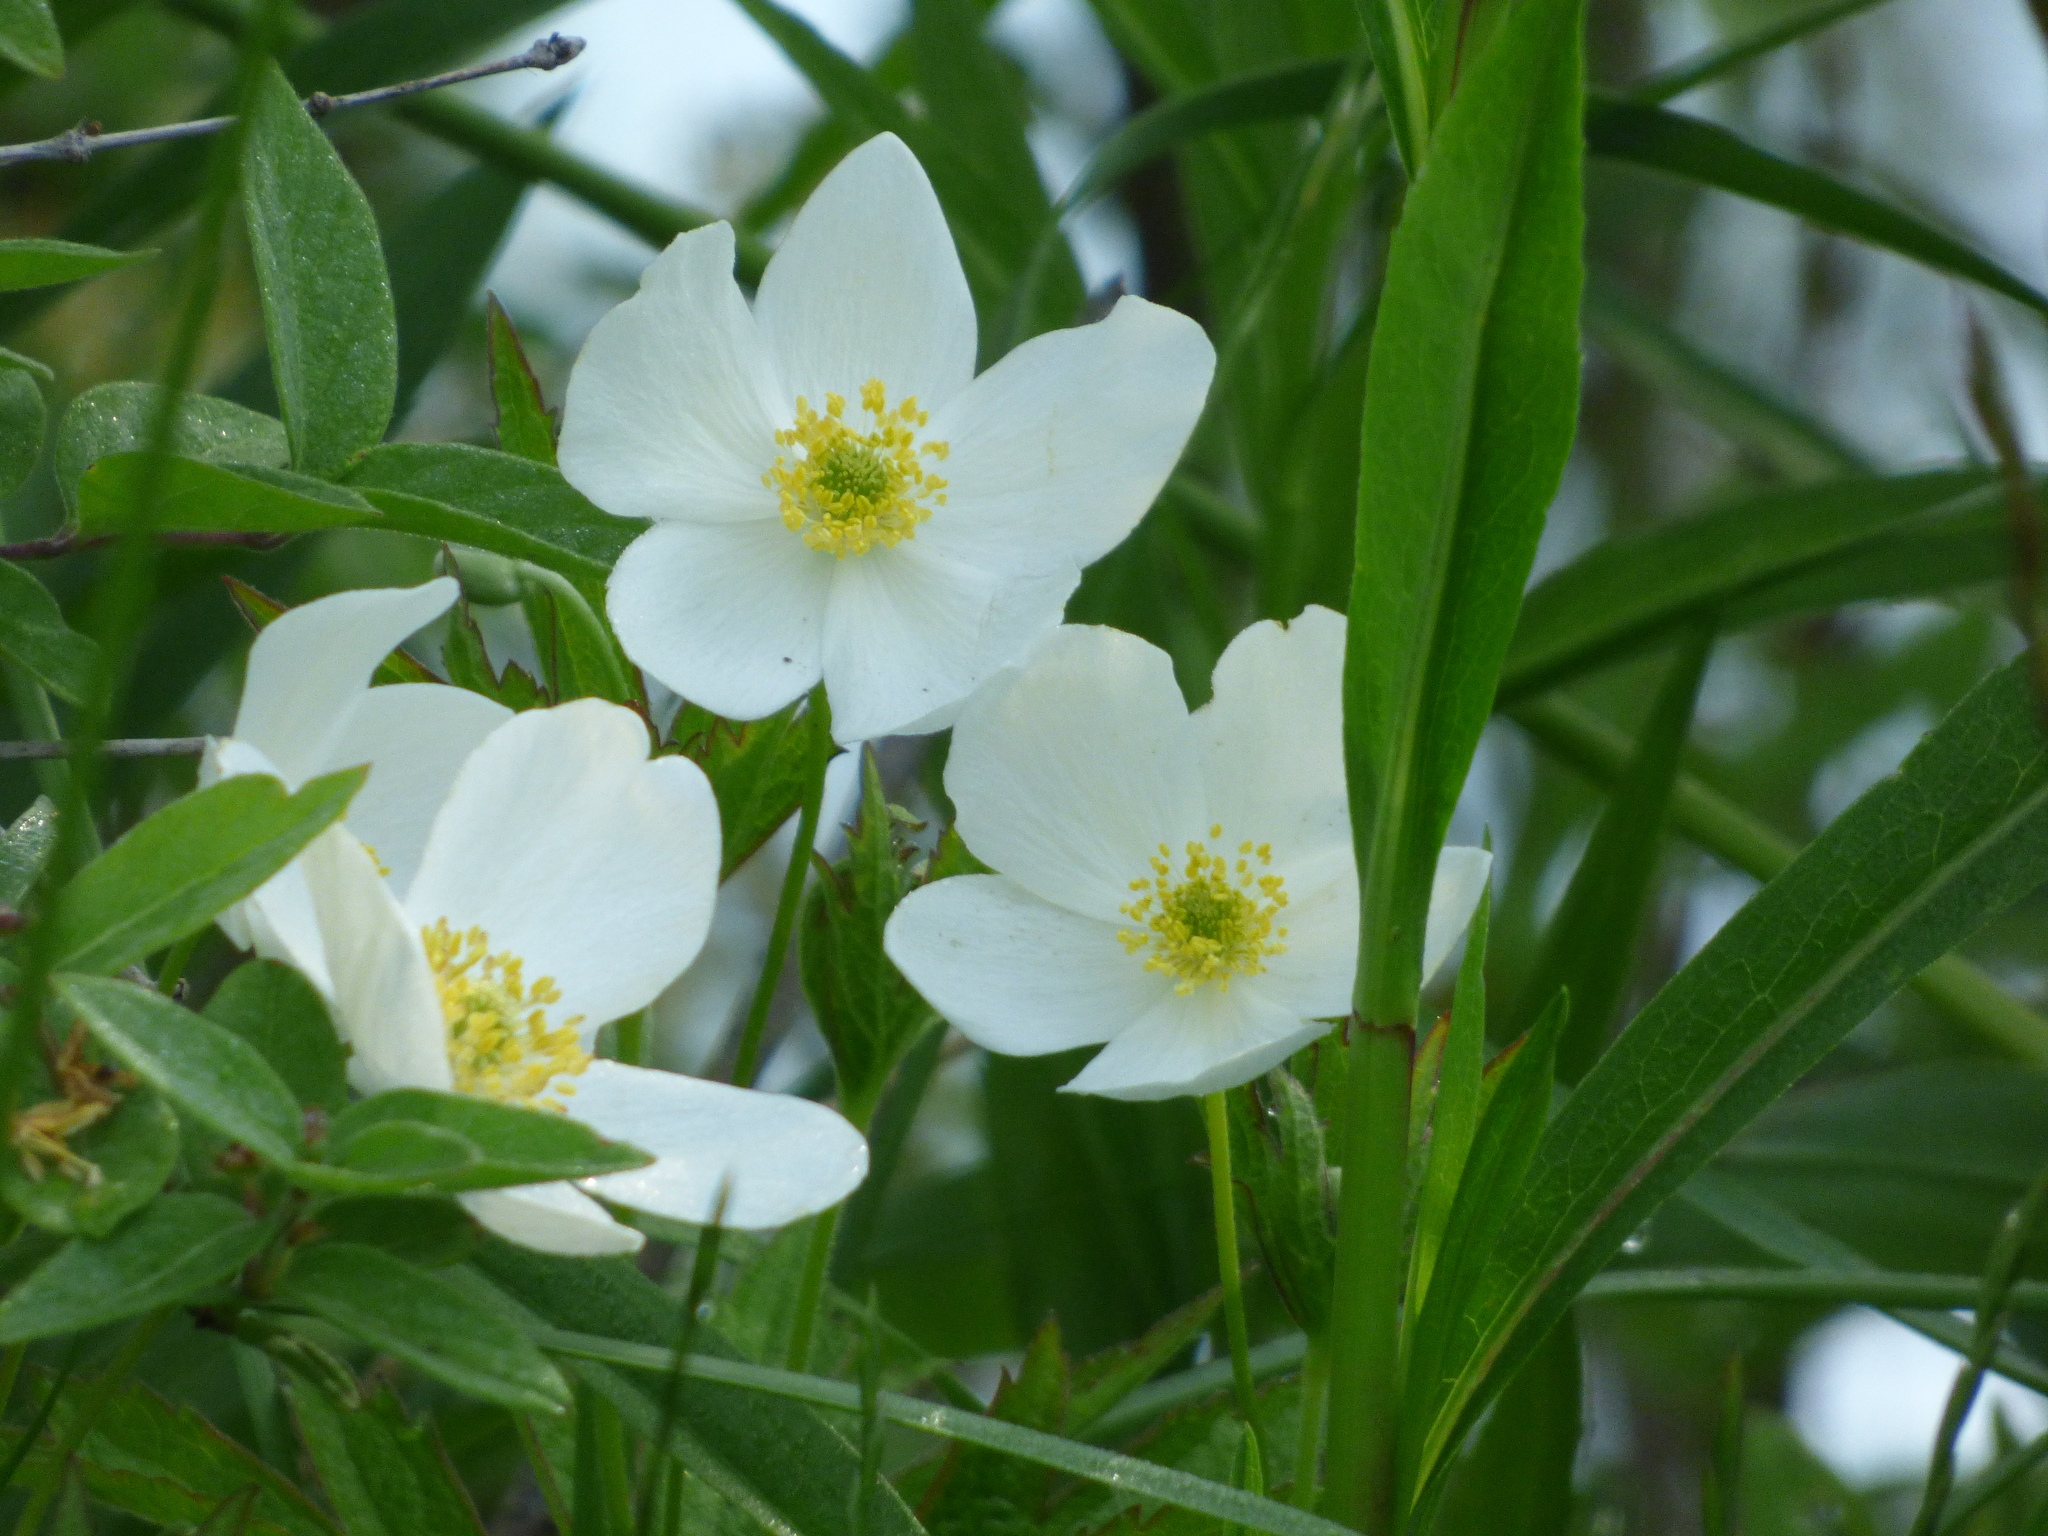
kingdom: Plantae
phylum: Tracheophyta
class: Magnoliopsida
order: Ranunculales
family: Ranunculaceae
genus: Anemonastrum
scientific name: Anemonastrum canadense
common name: Canada anemone
